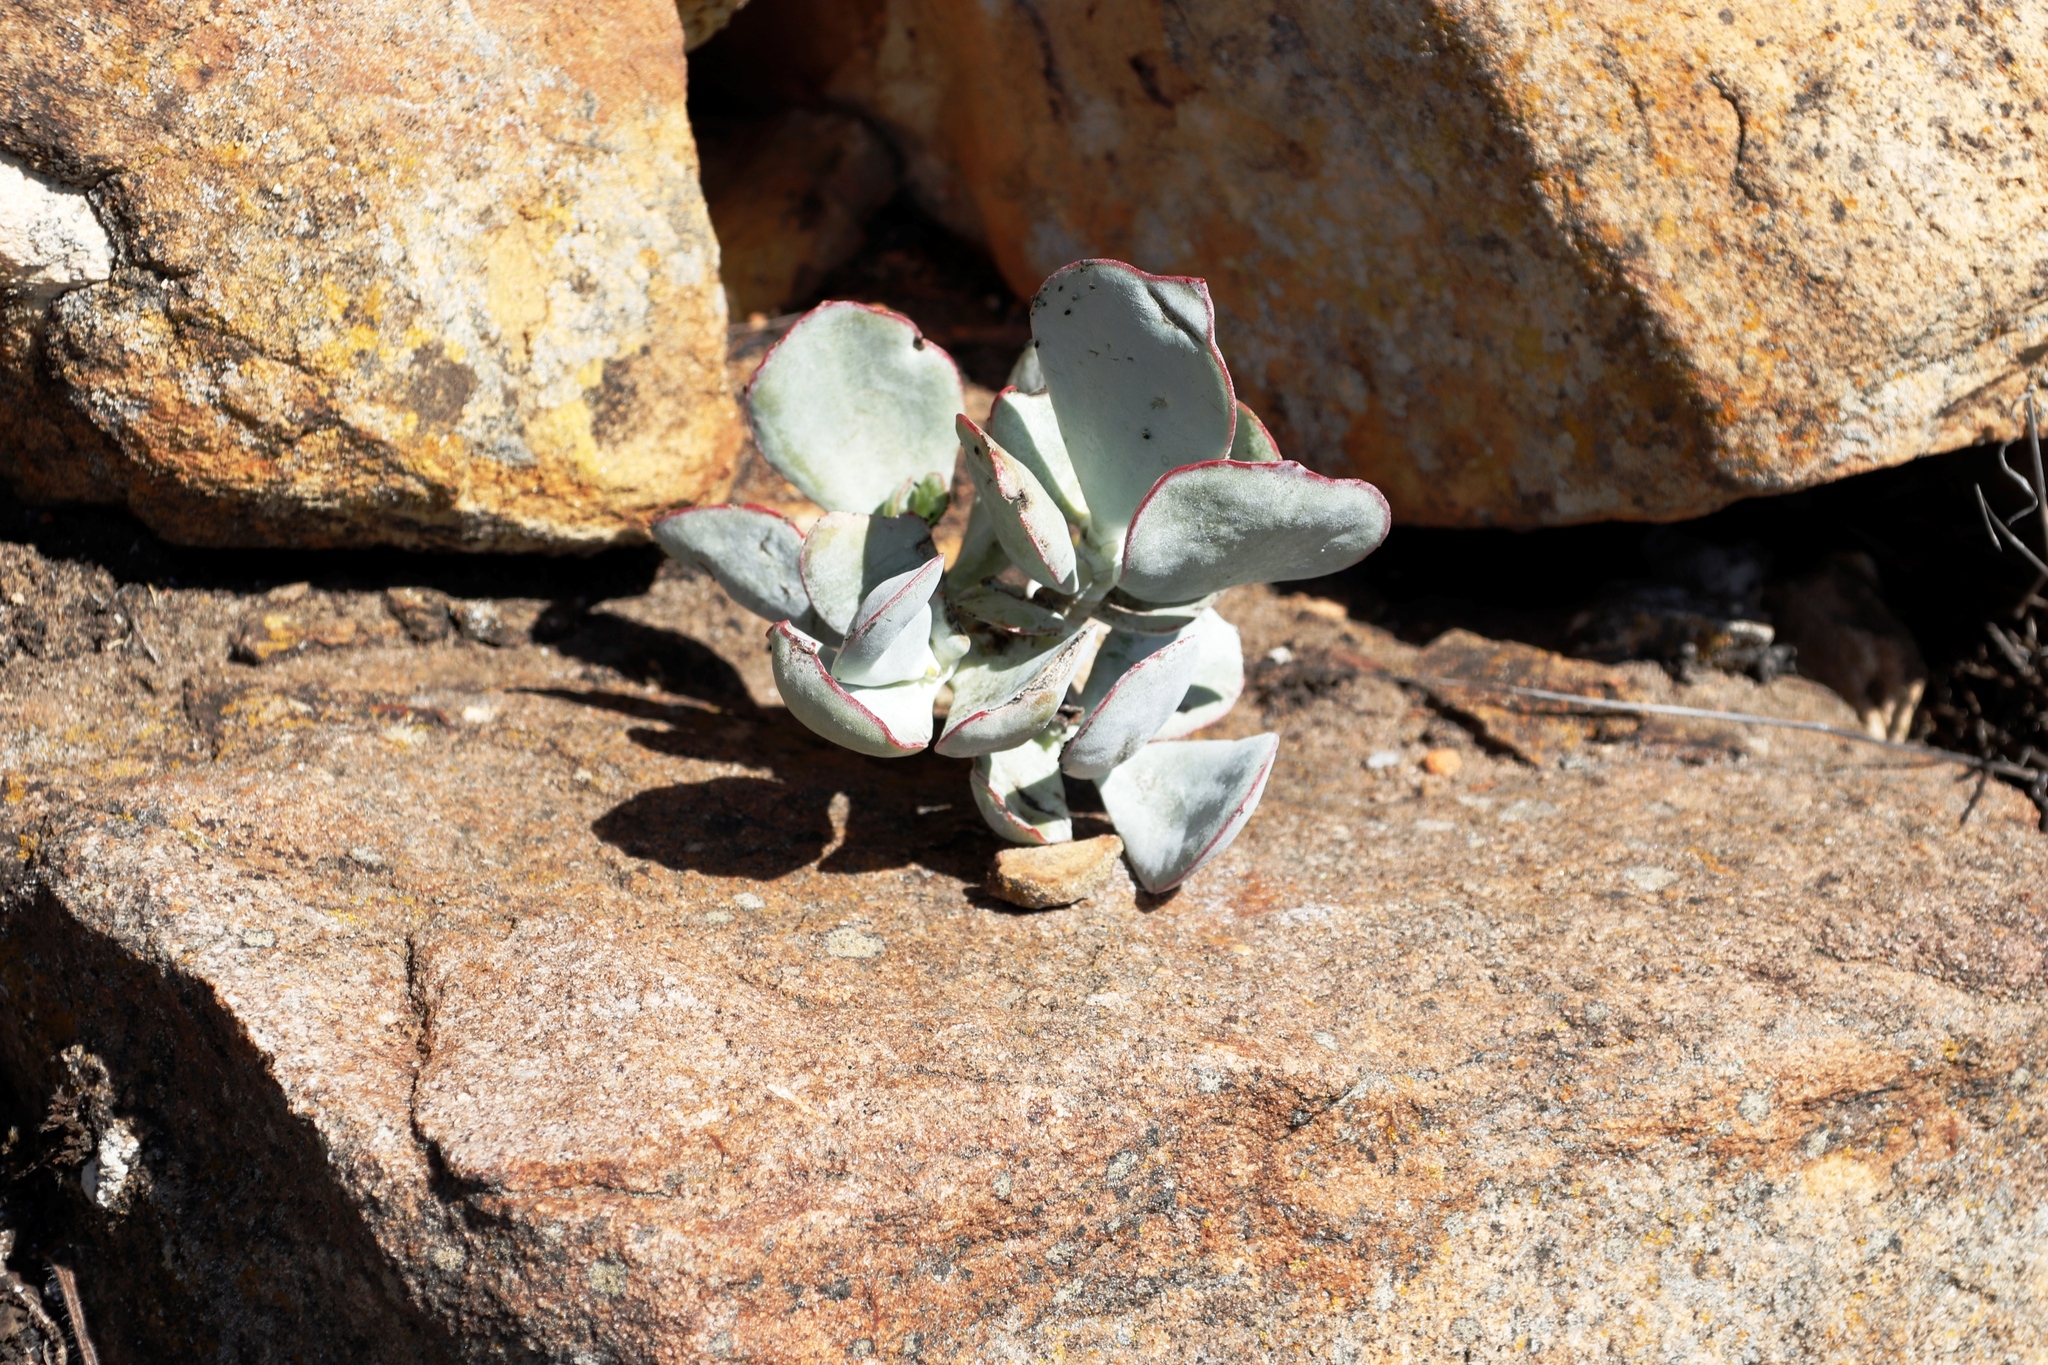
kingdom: Plantae
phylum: Tracheophyta
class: Magnoliopsida
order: Saxifragales
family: Crassulaceae
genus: Cotyledon
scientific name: Cotyledon orbiculata
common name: Pig's ear
